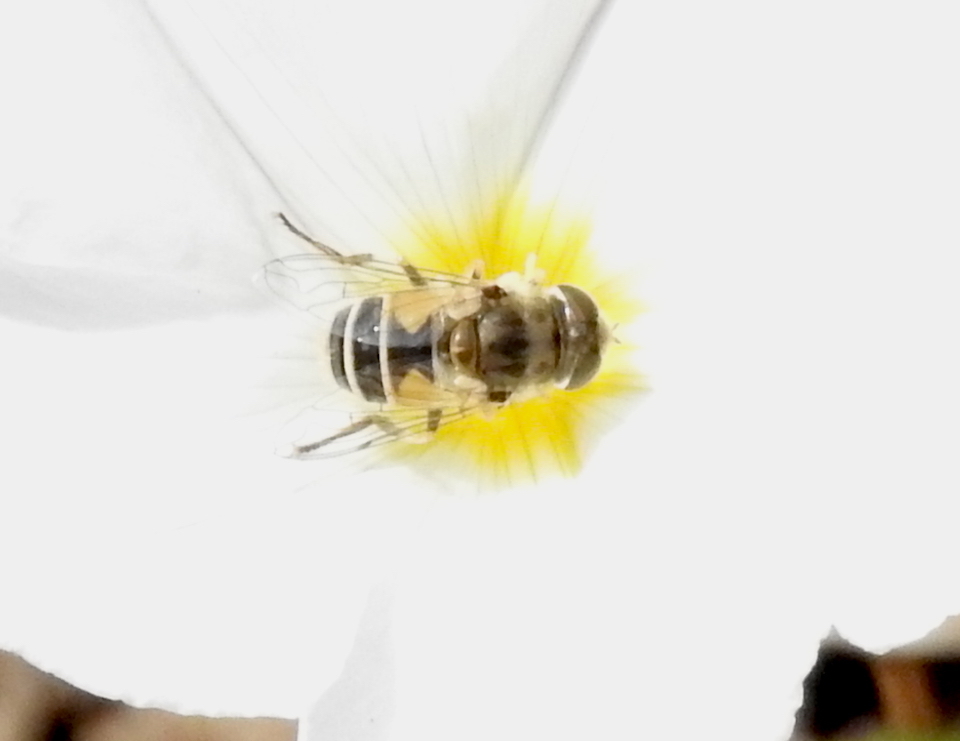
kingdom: Animalia
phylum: Arthropoda
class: Insecta
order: Diptera
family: Syrphidae
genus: Eristalis
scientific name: Eristalis arbustorum
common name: Hover fly
